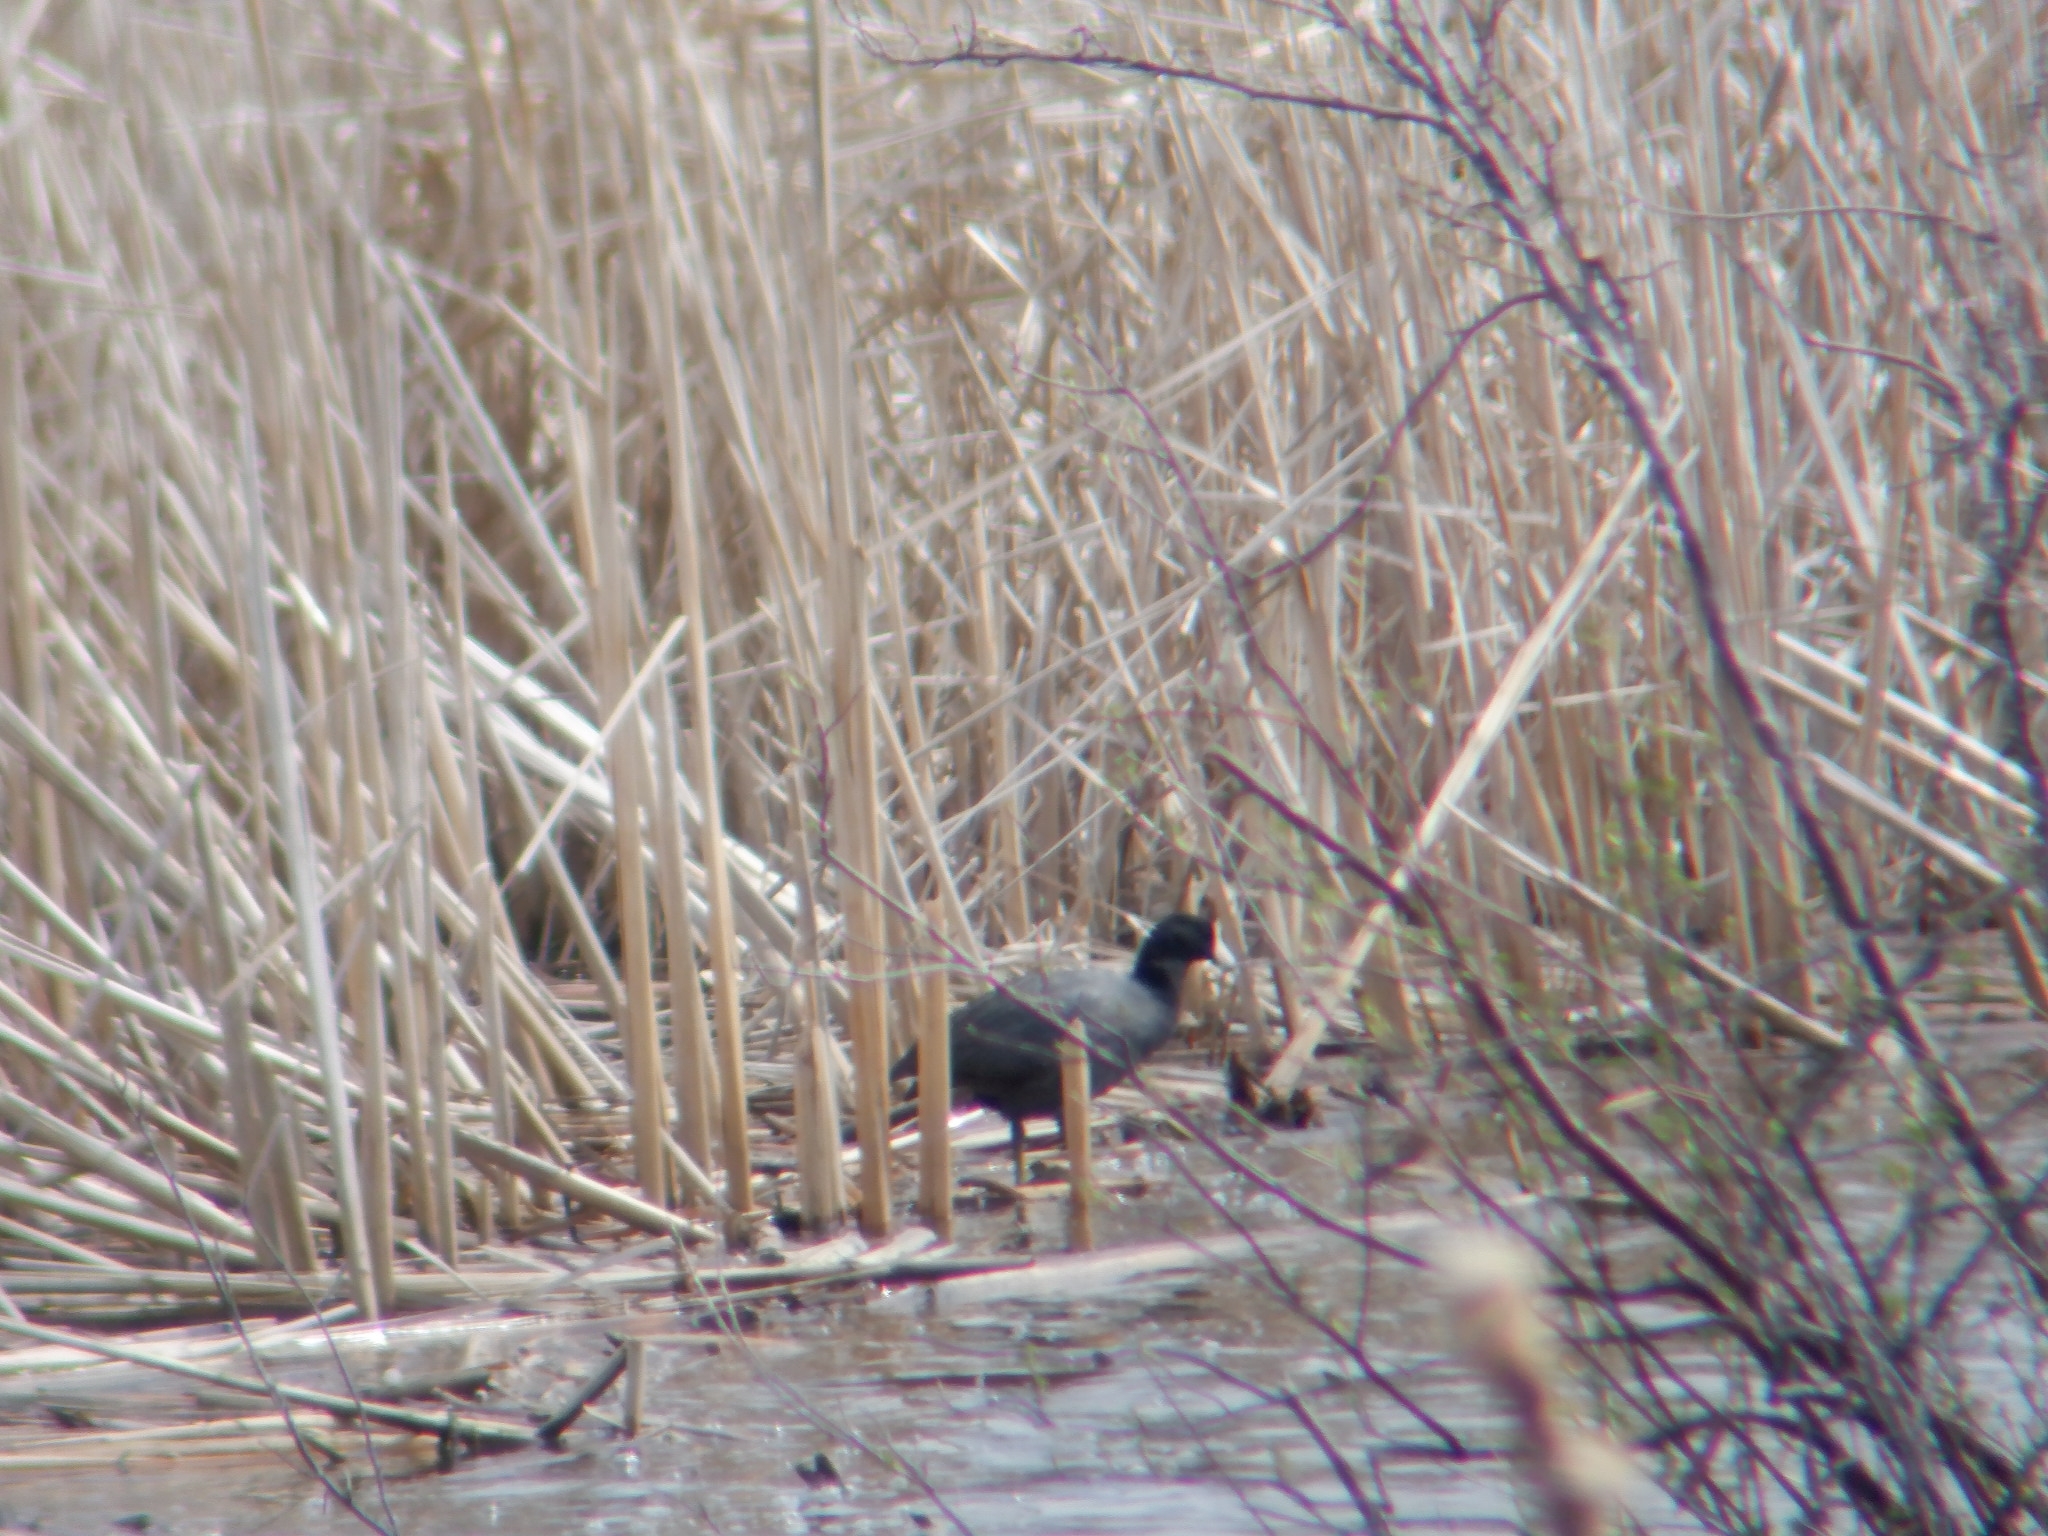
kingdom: Animalia
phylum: Chordata
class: Aves
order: Gruiformes
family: Rallidae
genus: Fulica
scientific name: Fulica americana
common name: American coot
